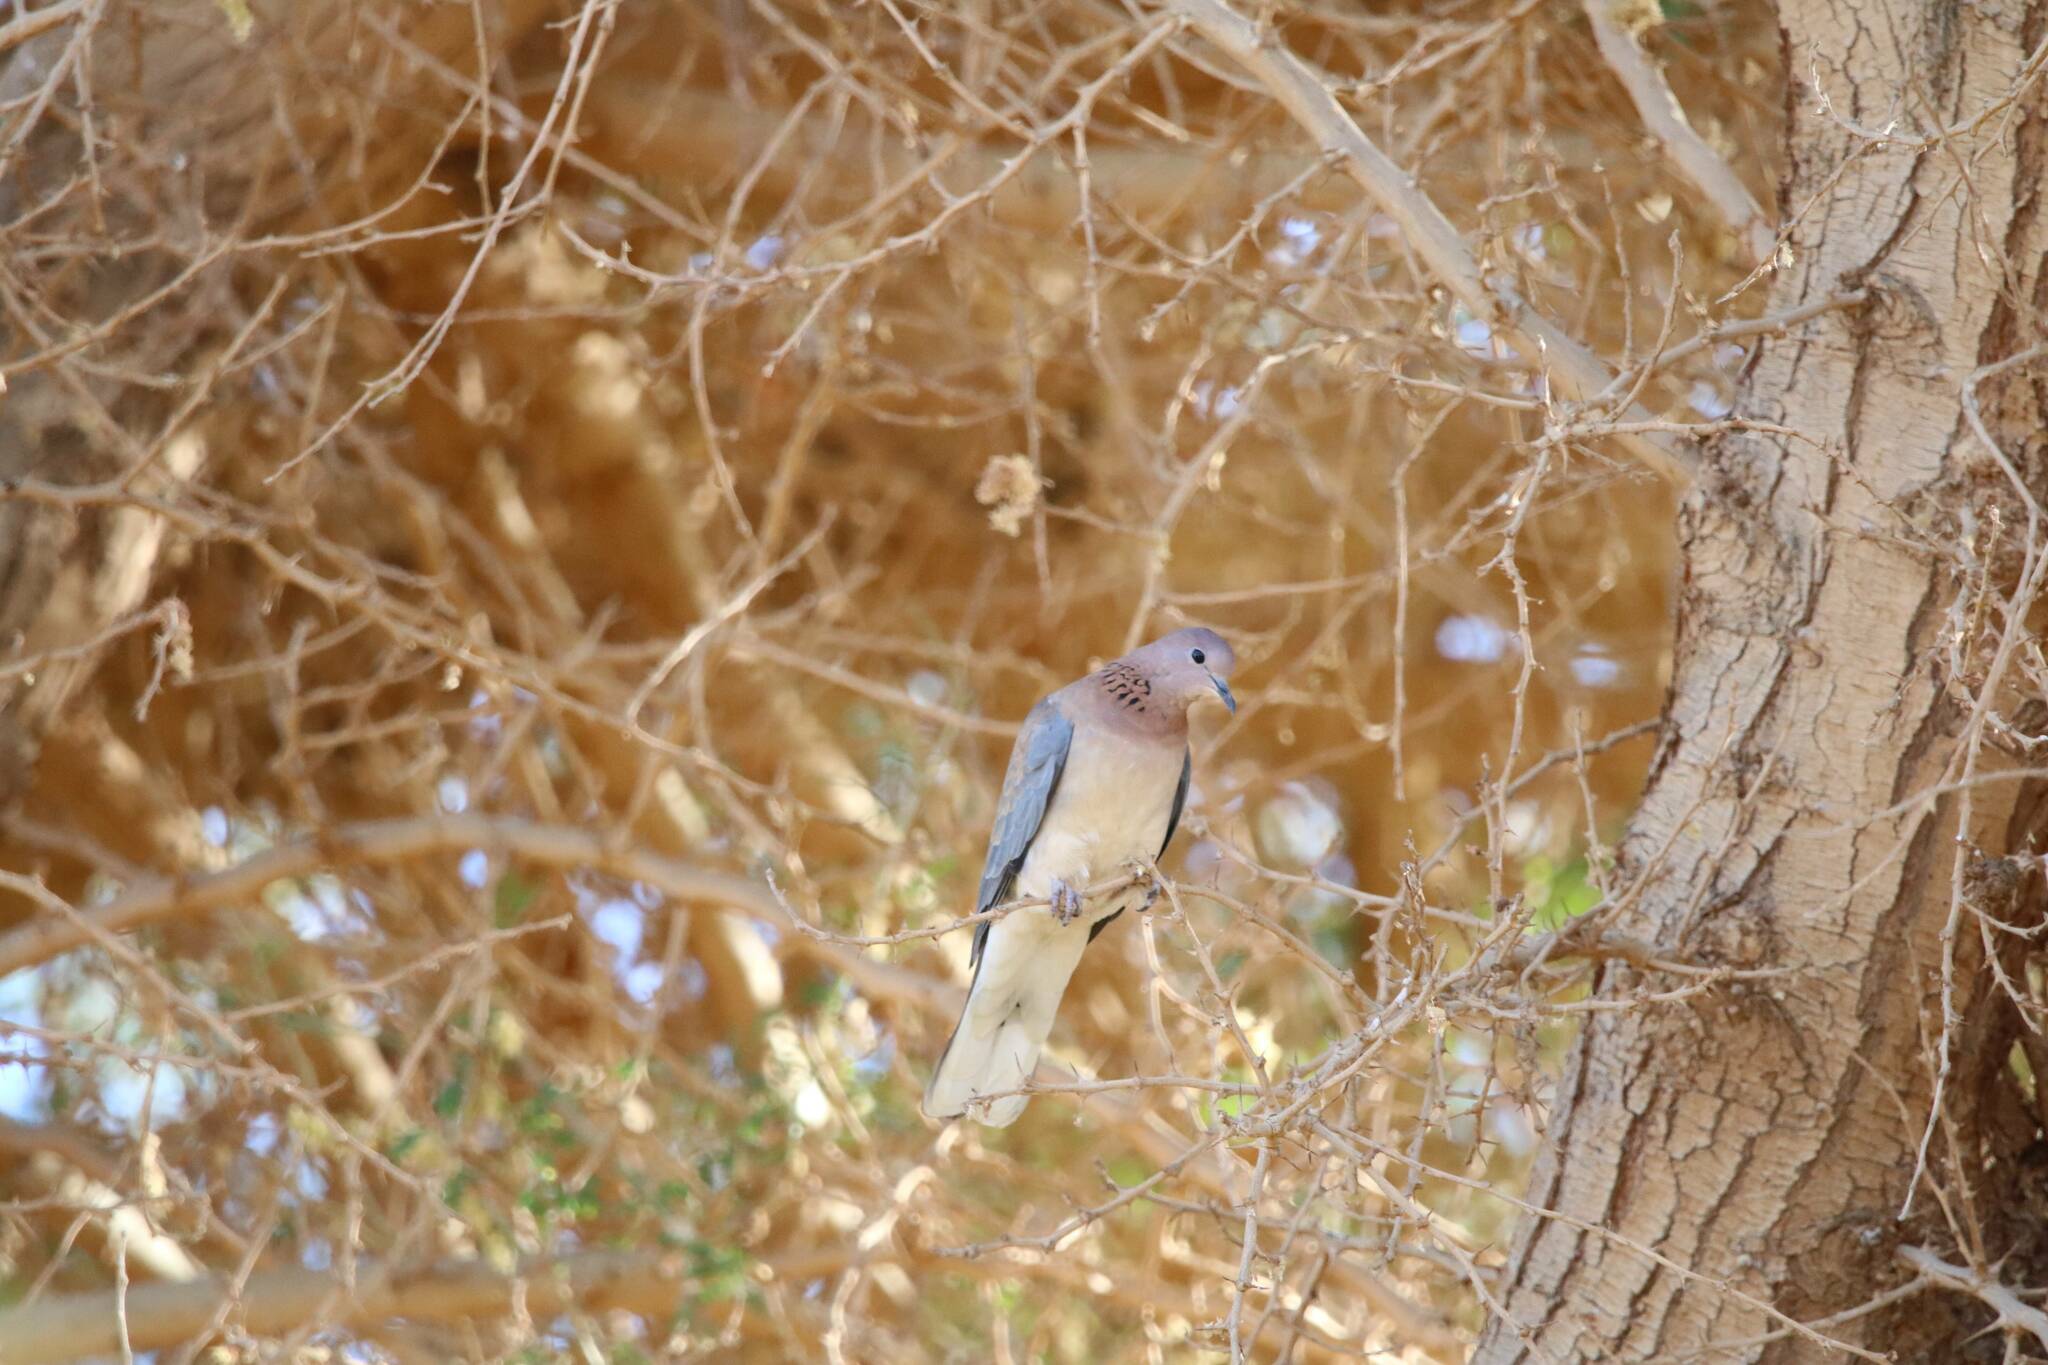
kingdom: Animalia
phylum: Chordata
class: Aves
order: Columbiformes
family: Columbidae
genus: Spilopelia
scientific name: Spilopelia senegalensis
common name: Laughing dove
